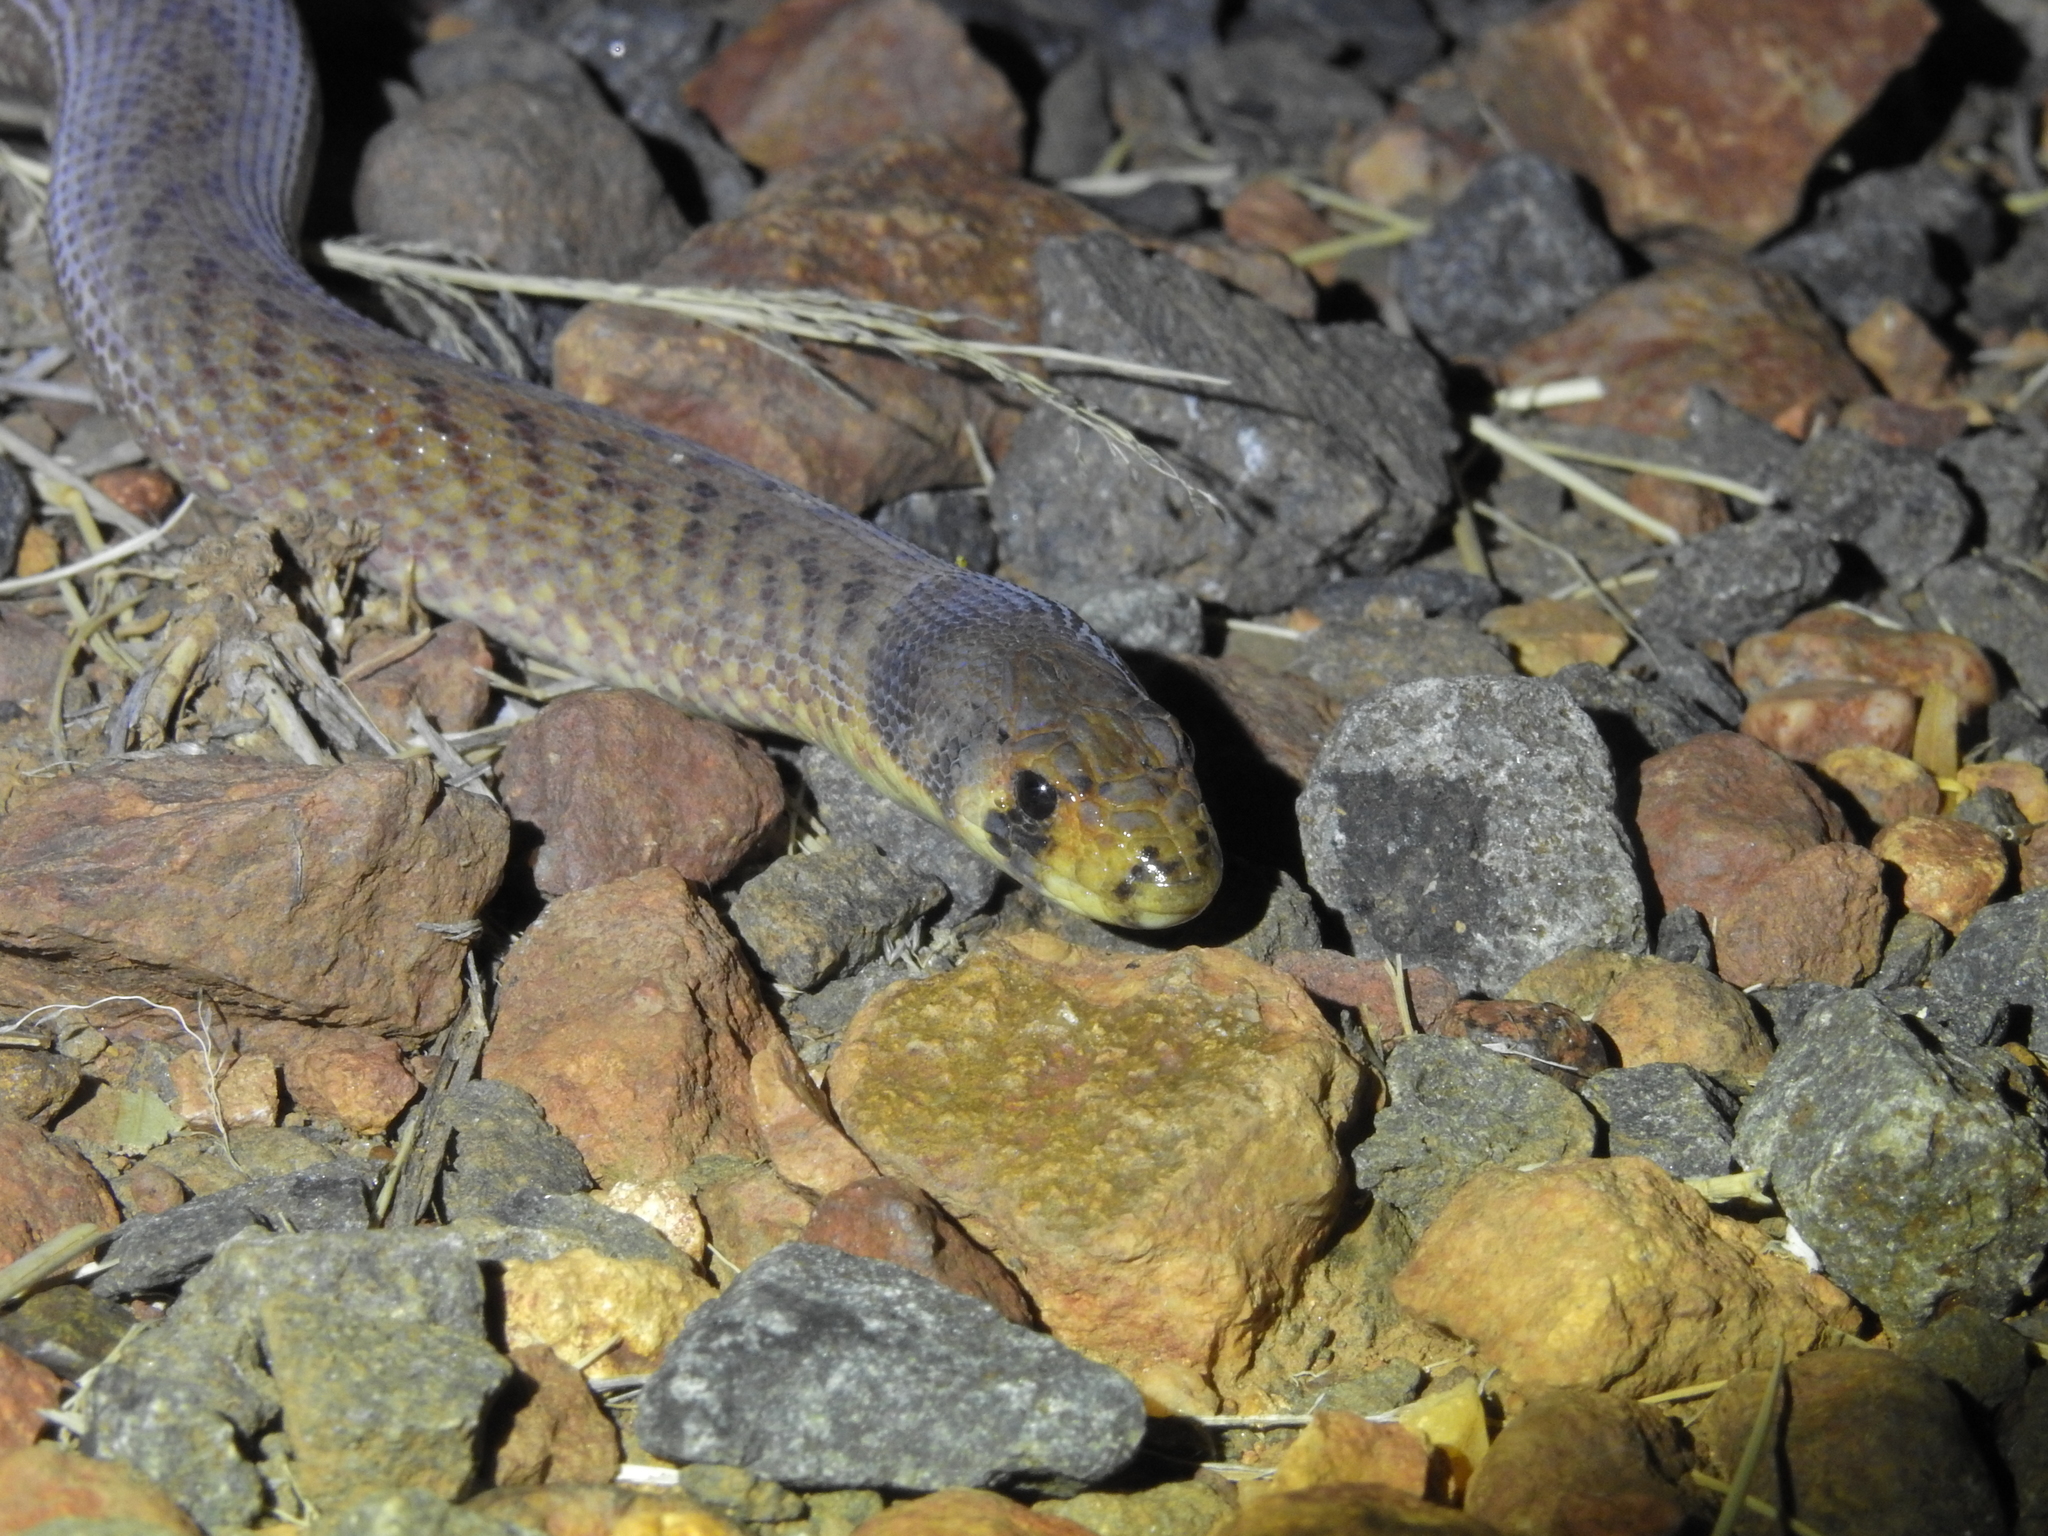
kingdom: Animalia
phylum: Chordata
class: Squamata
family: Pygopodidae
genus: Pygopus
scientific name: Pygopus schraderi
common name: Eastern scaly-foot
